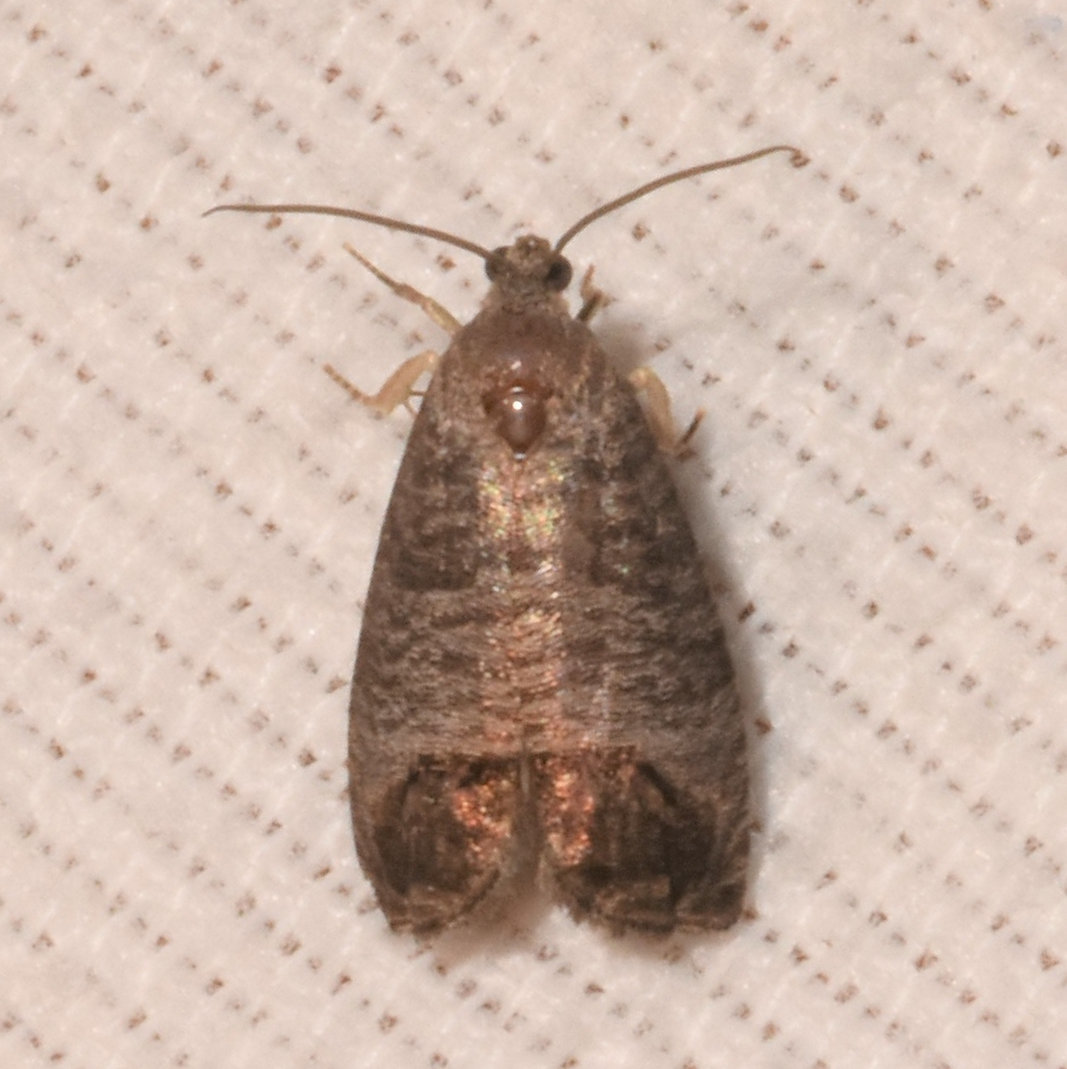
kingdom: Animalia
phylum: Arthropoda
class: Insecta
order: Lepidoptera
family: Tortricidae
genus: Cydia
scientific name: Cydia pomonella
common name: Codling moth
